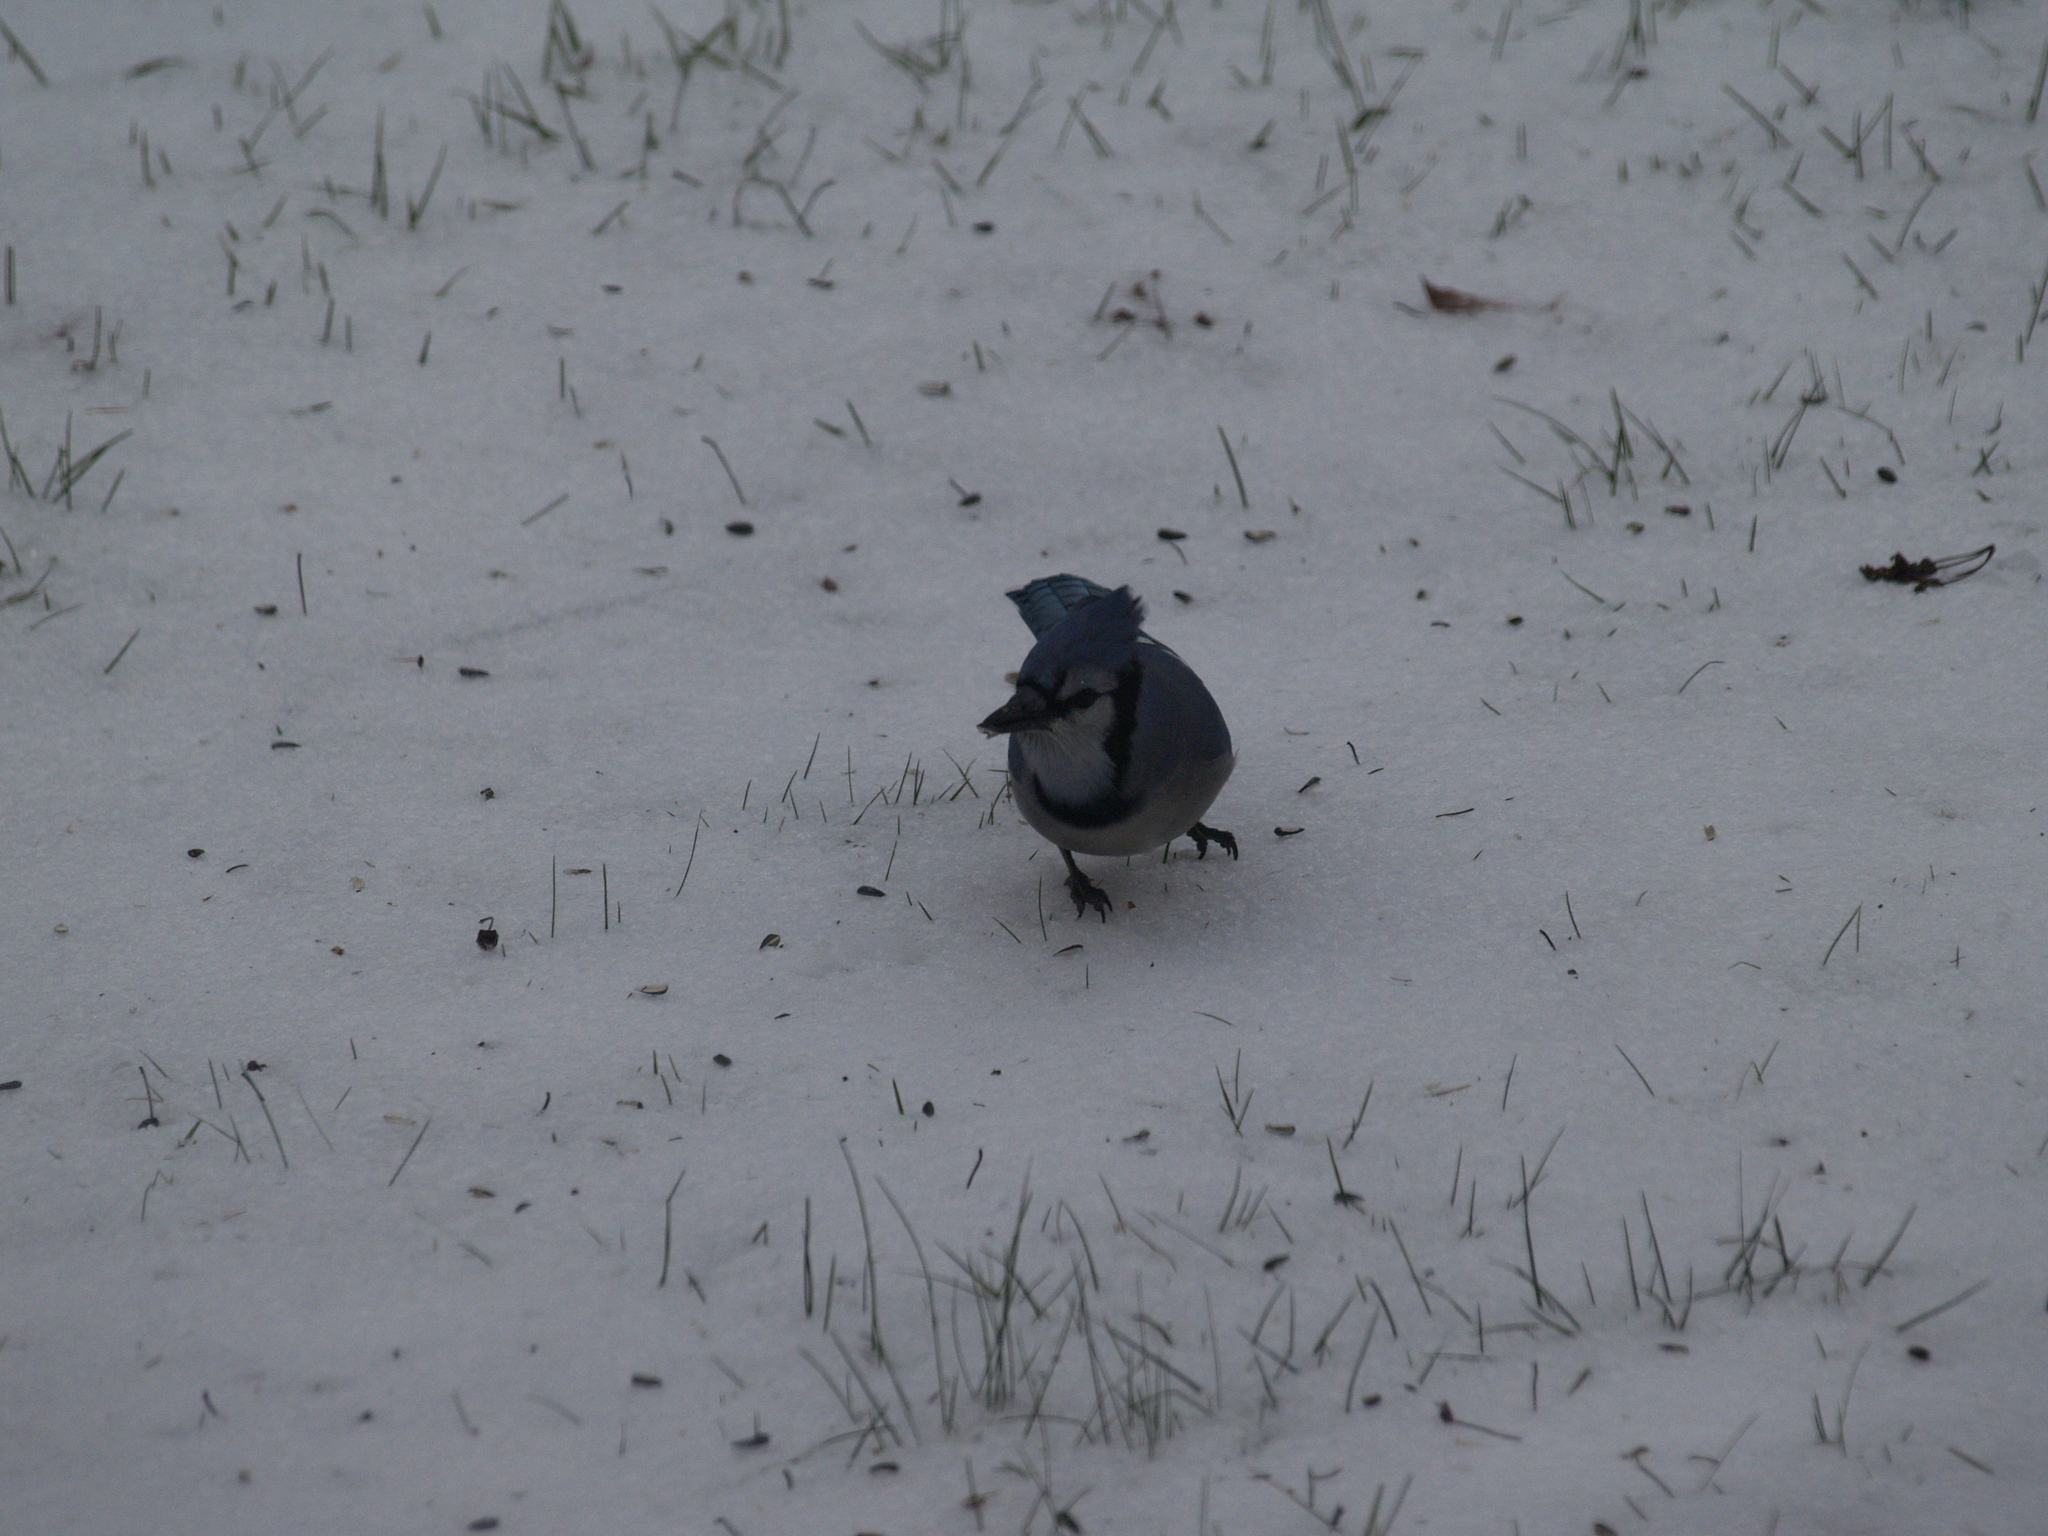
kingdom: Animalia
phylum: Chordata
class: Aves
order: Passeriformes
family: Corvidae
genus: Cyanocitta
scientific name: Cyanocitta cristata
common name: Blue jay
